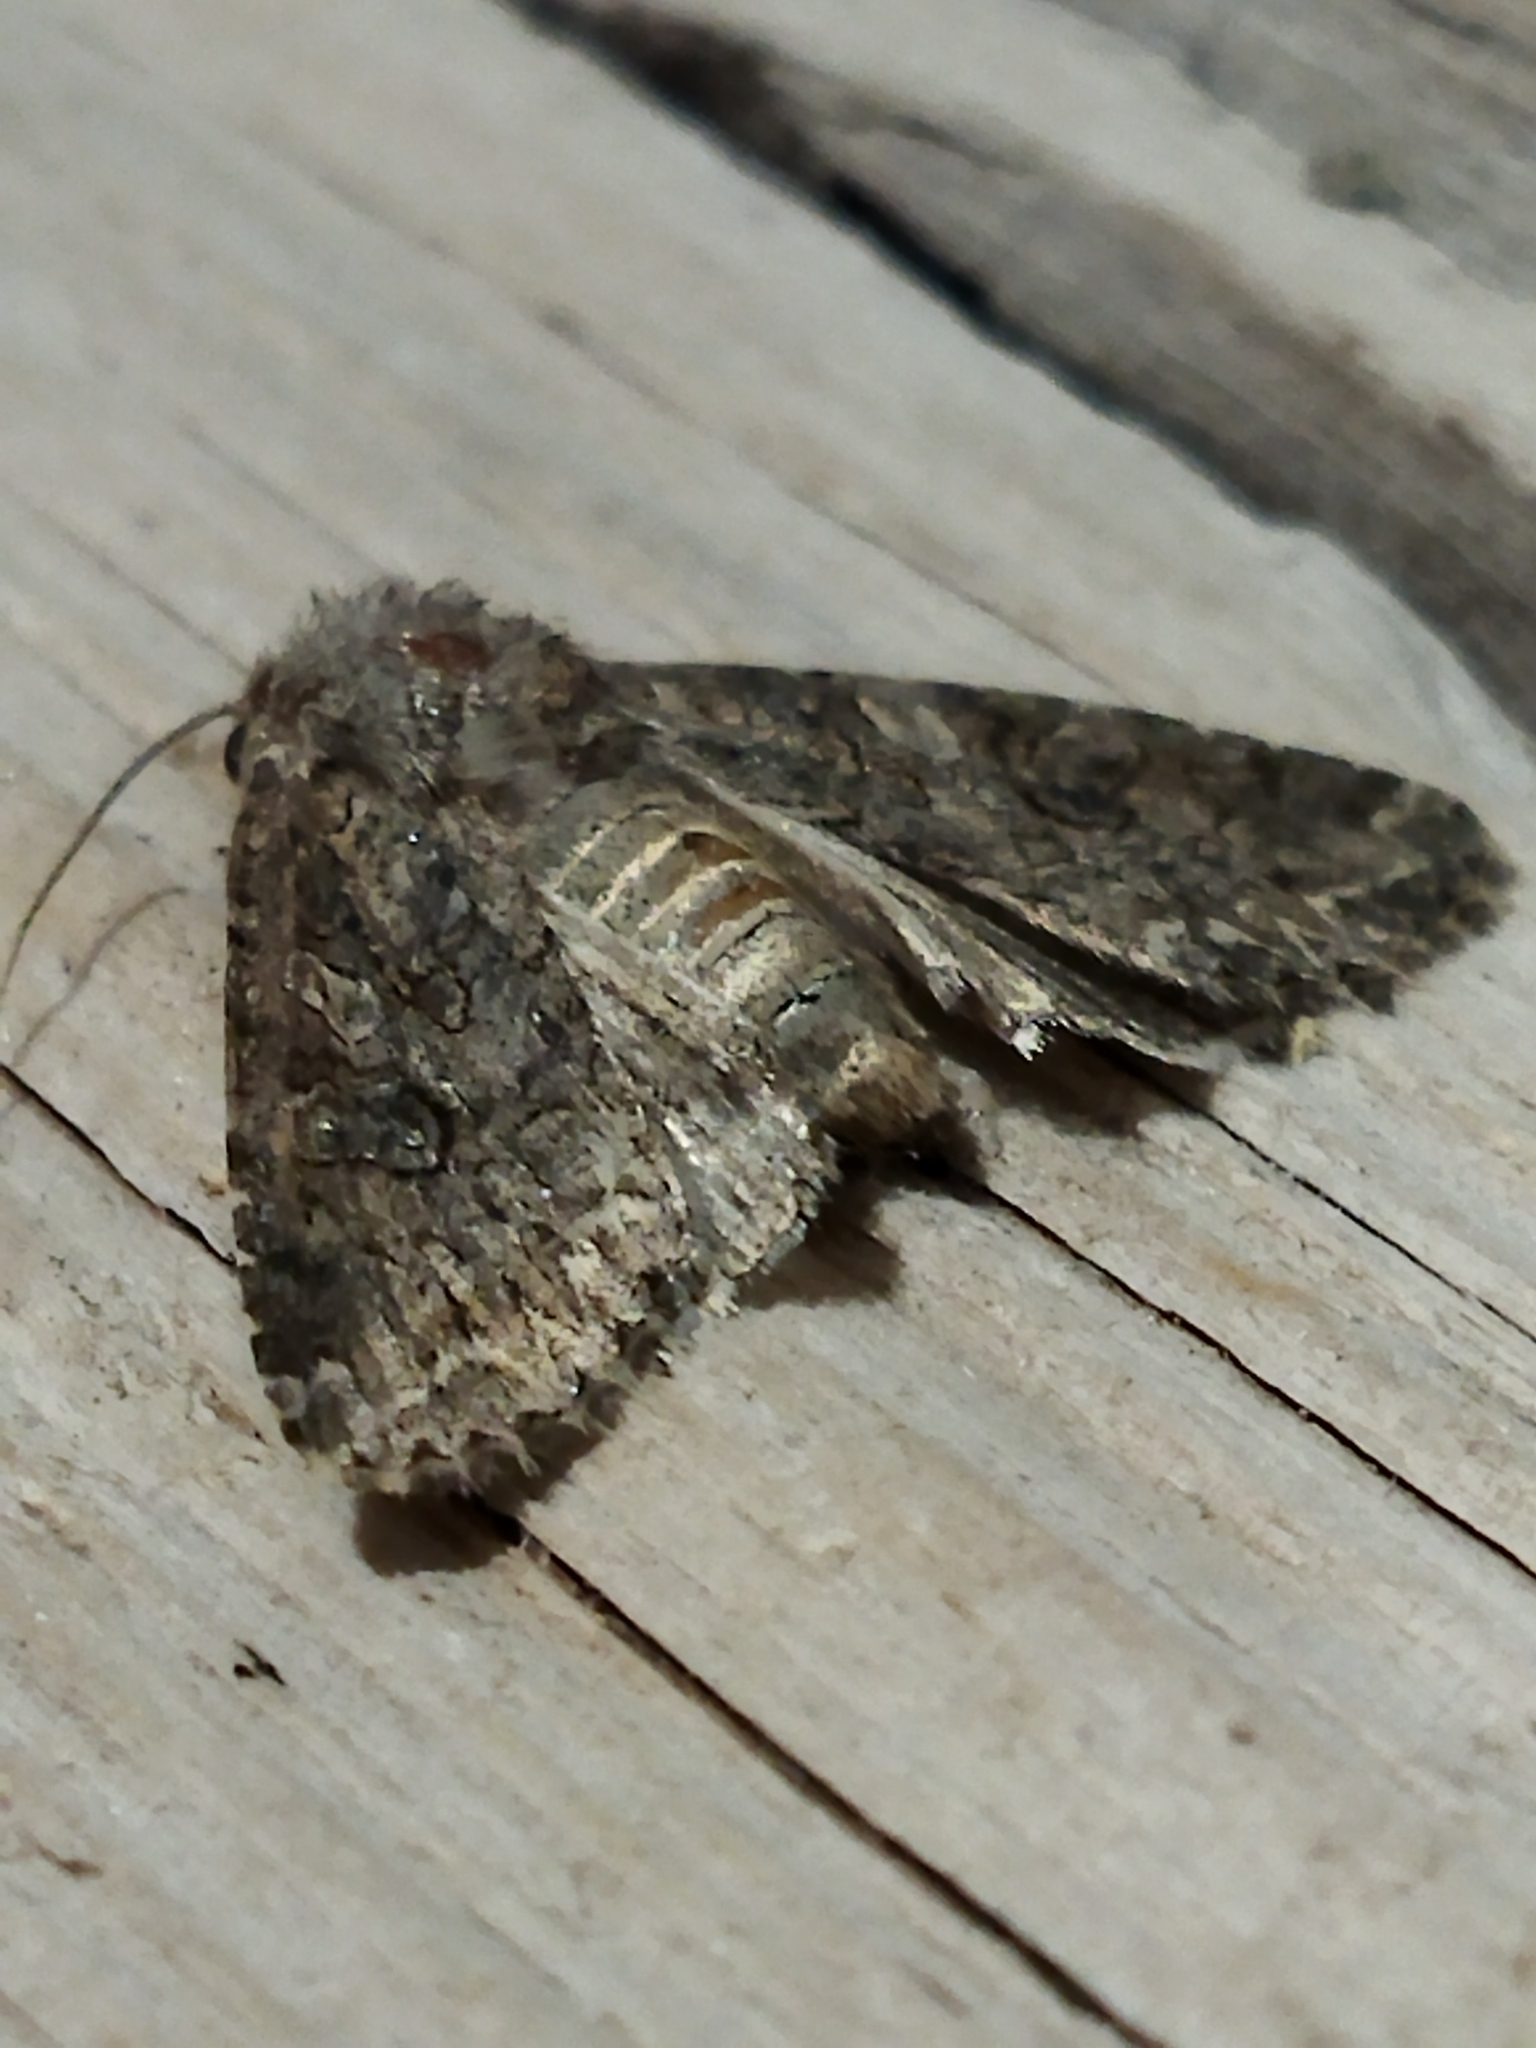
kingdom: Animalia
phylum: Arthropoda
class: Insecta
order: Lepidoptera
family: Noctuidae
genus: Anarta
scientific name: Anarta trifolii
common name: Clover cutworm moth
